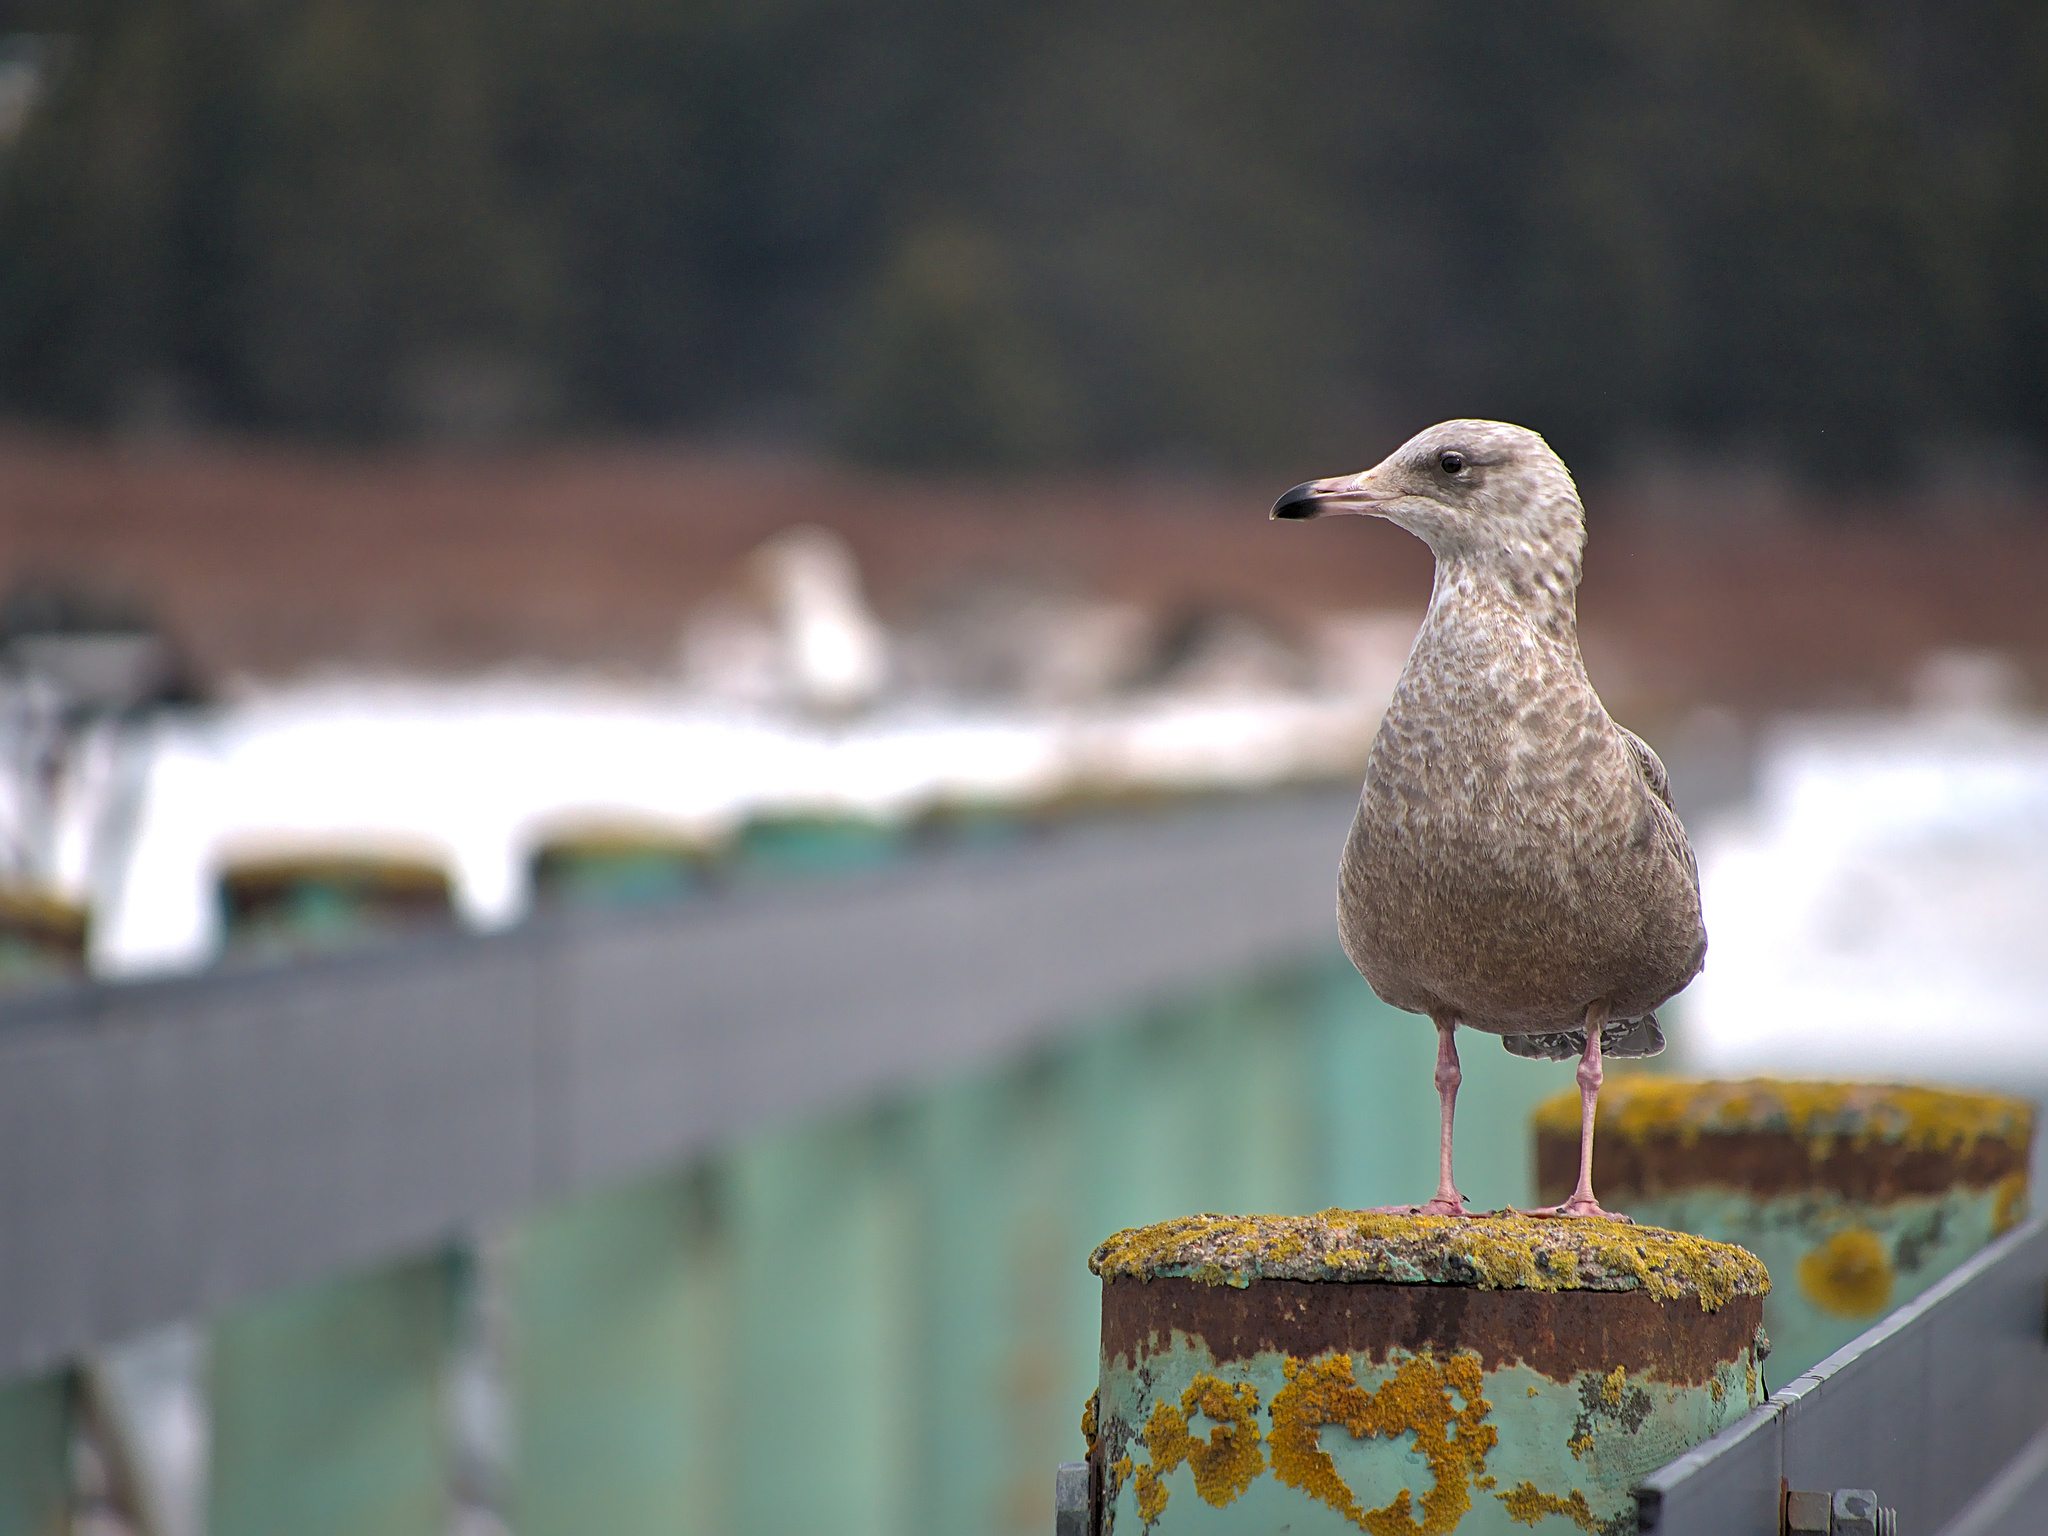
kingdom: Animalia
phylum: Chordata
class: Aves
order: Charadriiformes
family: Laridae
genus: Larus
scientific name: Larus hyperboreus
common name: Glaucous gull
